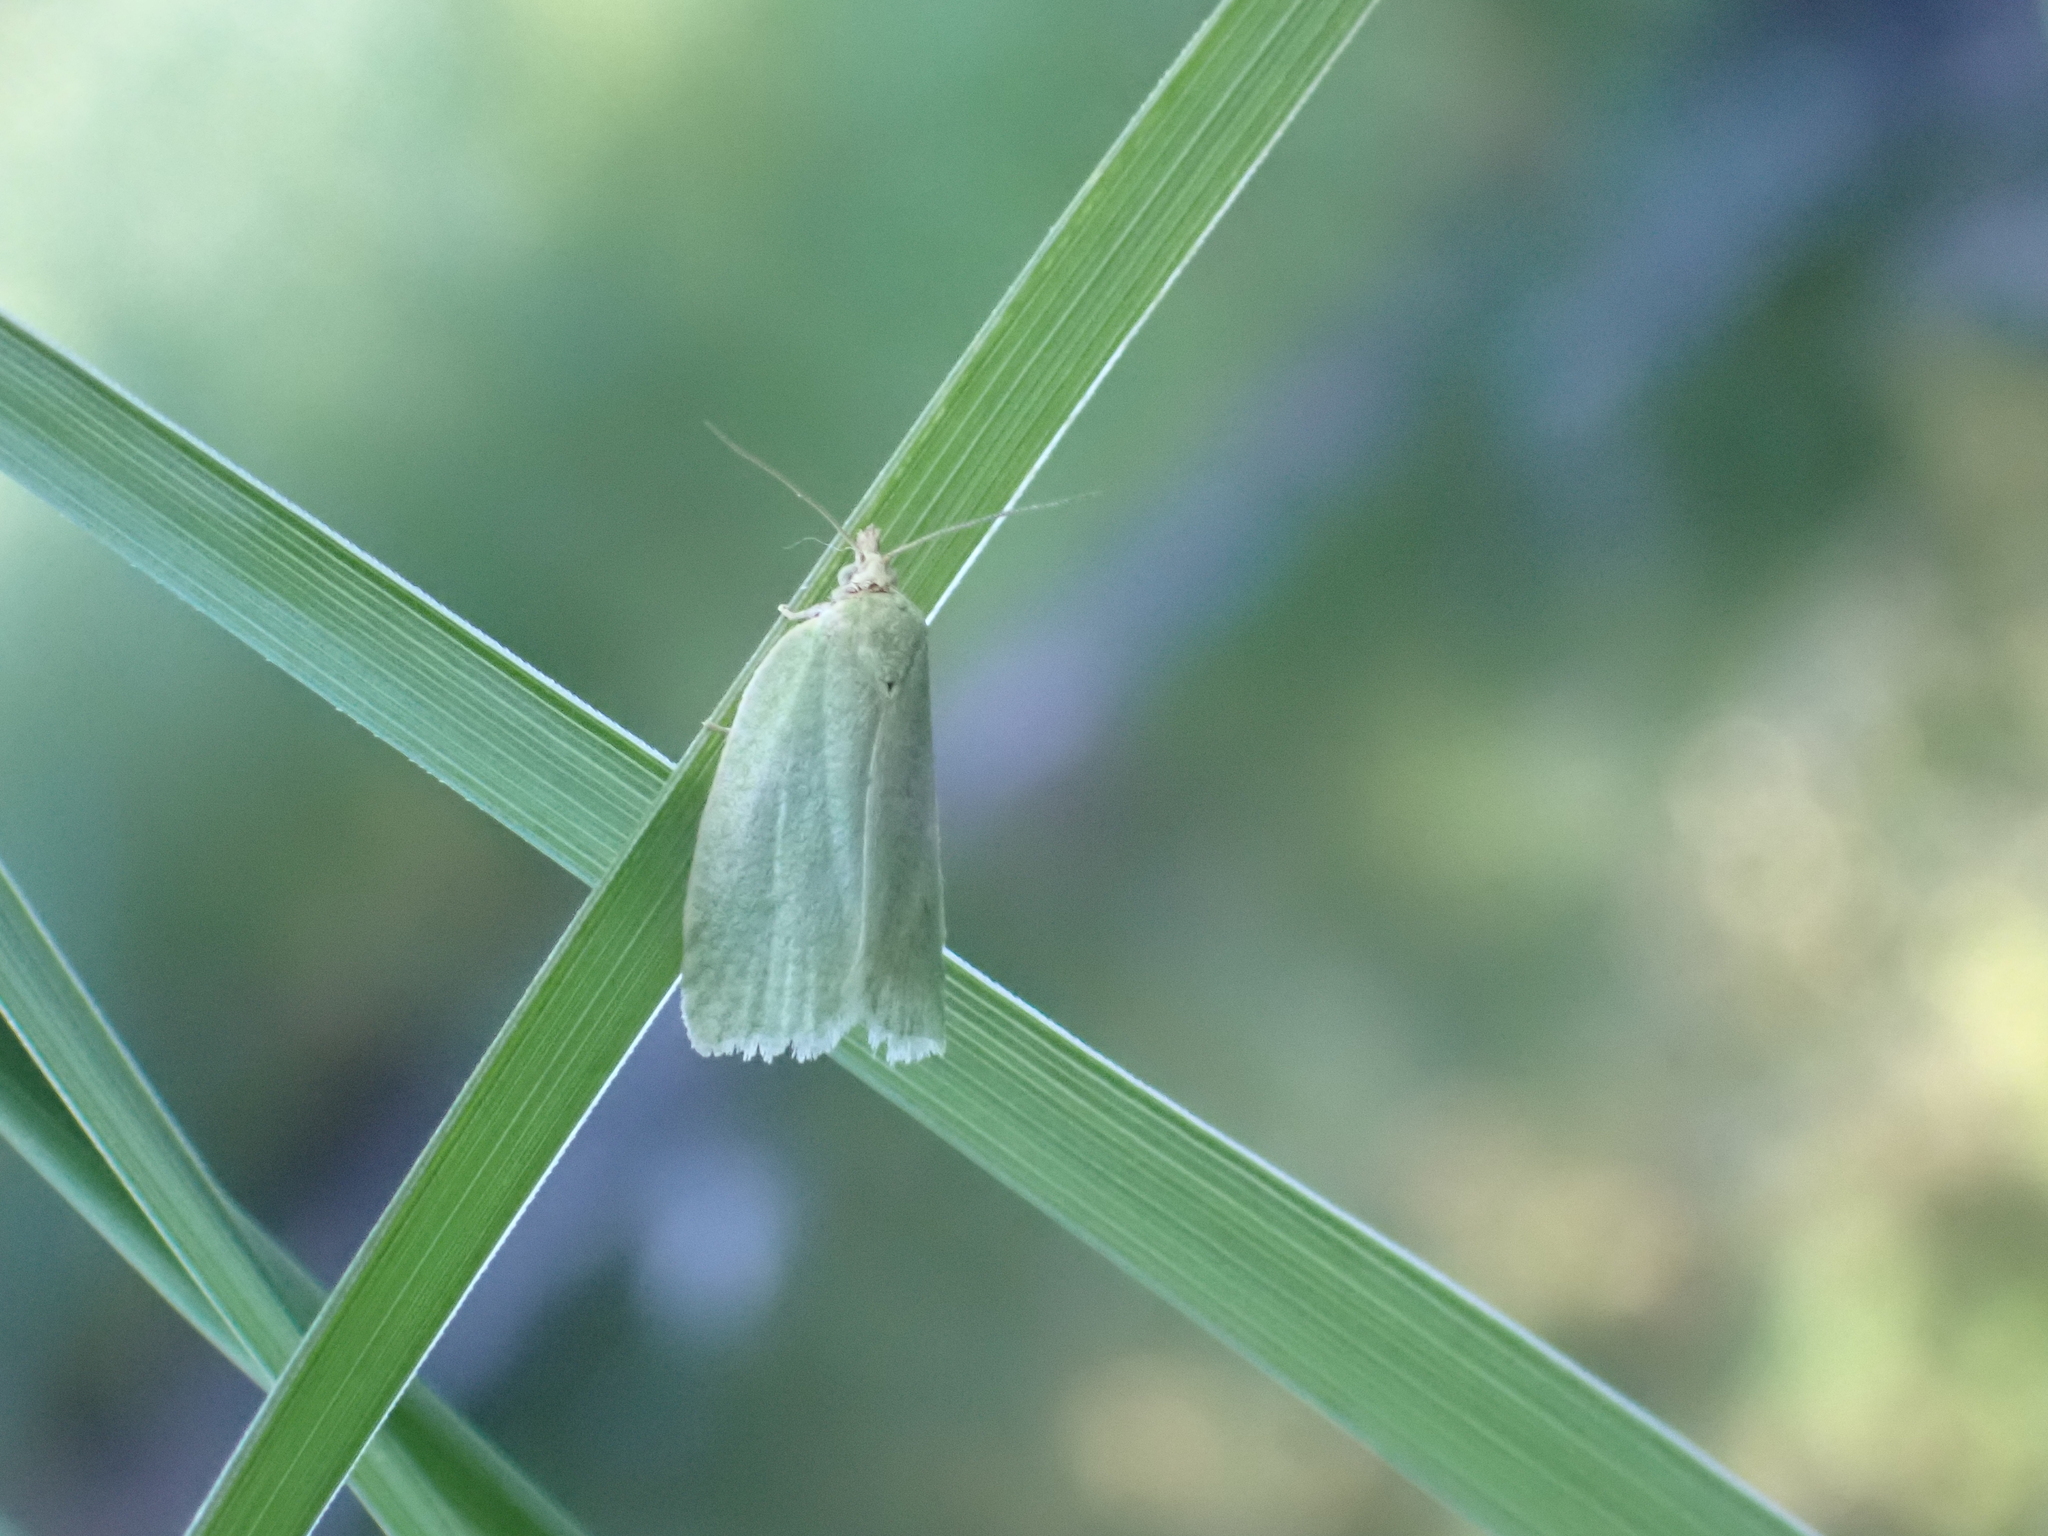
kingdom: Animalia
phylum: Arthropoda
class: Insecta
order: Lepidoptera
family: Tortricidae
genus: Tortrix
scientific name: Tortrix viridana
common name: Green oak tortrix
